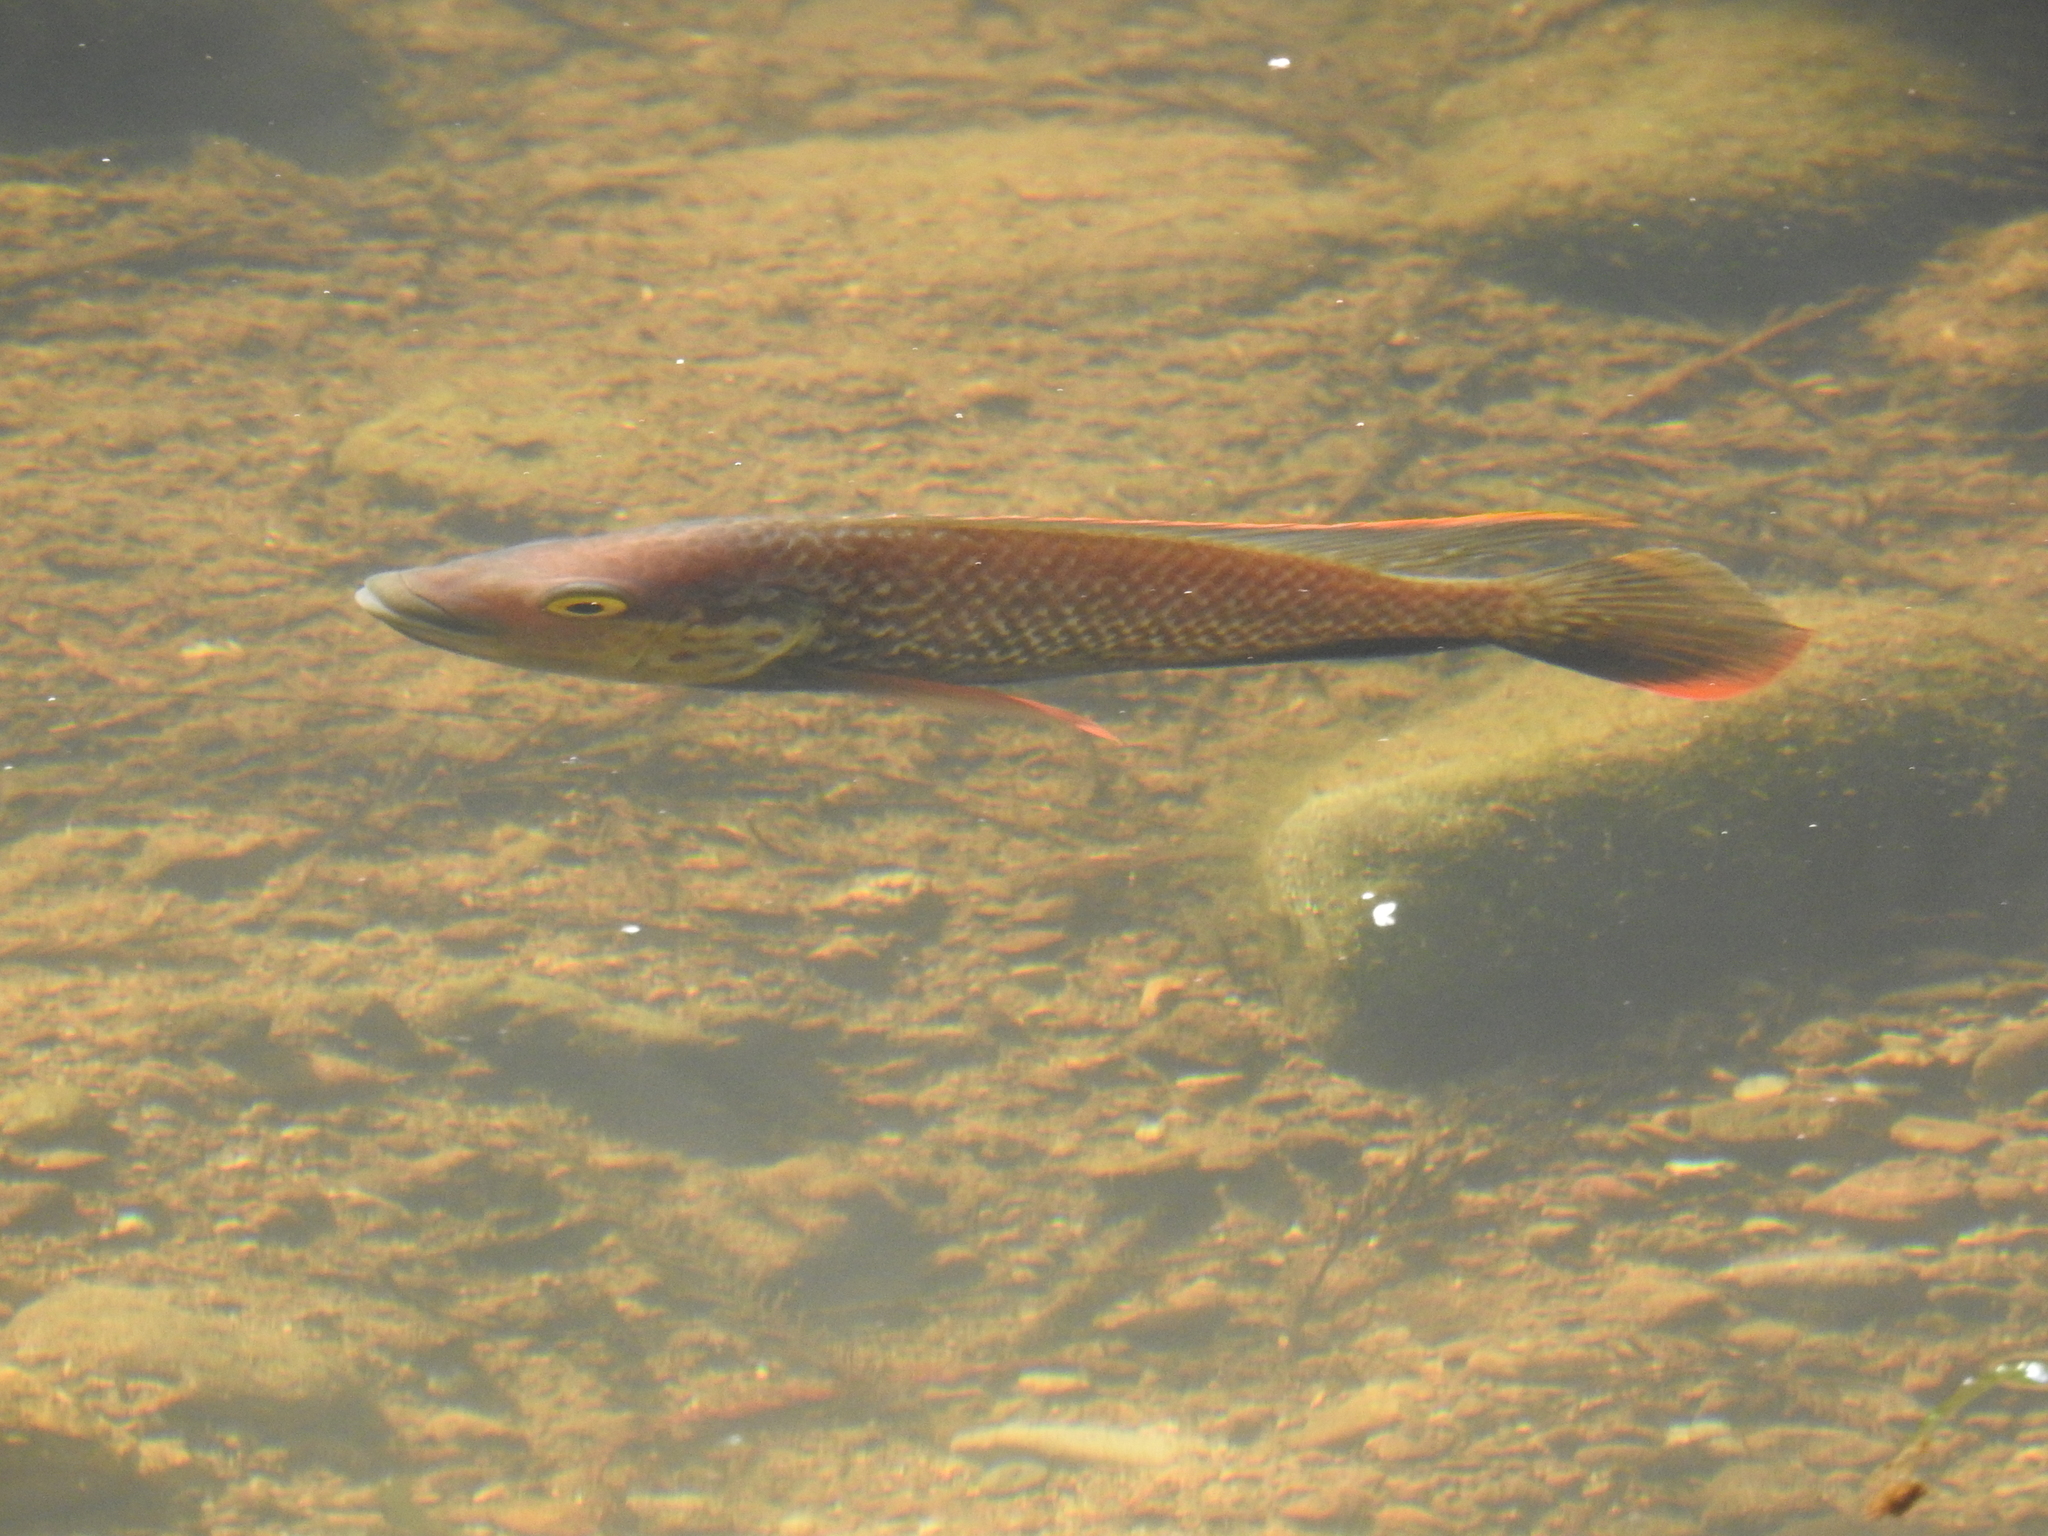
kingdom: Animalia
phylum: Chordata
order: Perciformes
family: Cichlidae
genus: Oreochromis
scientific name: Oreochromis mossambicus
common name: Mozambique tilapia
